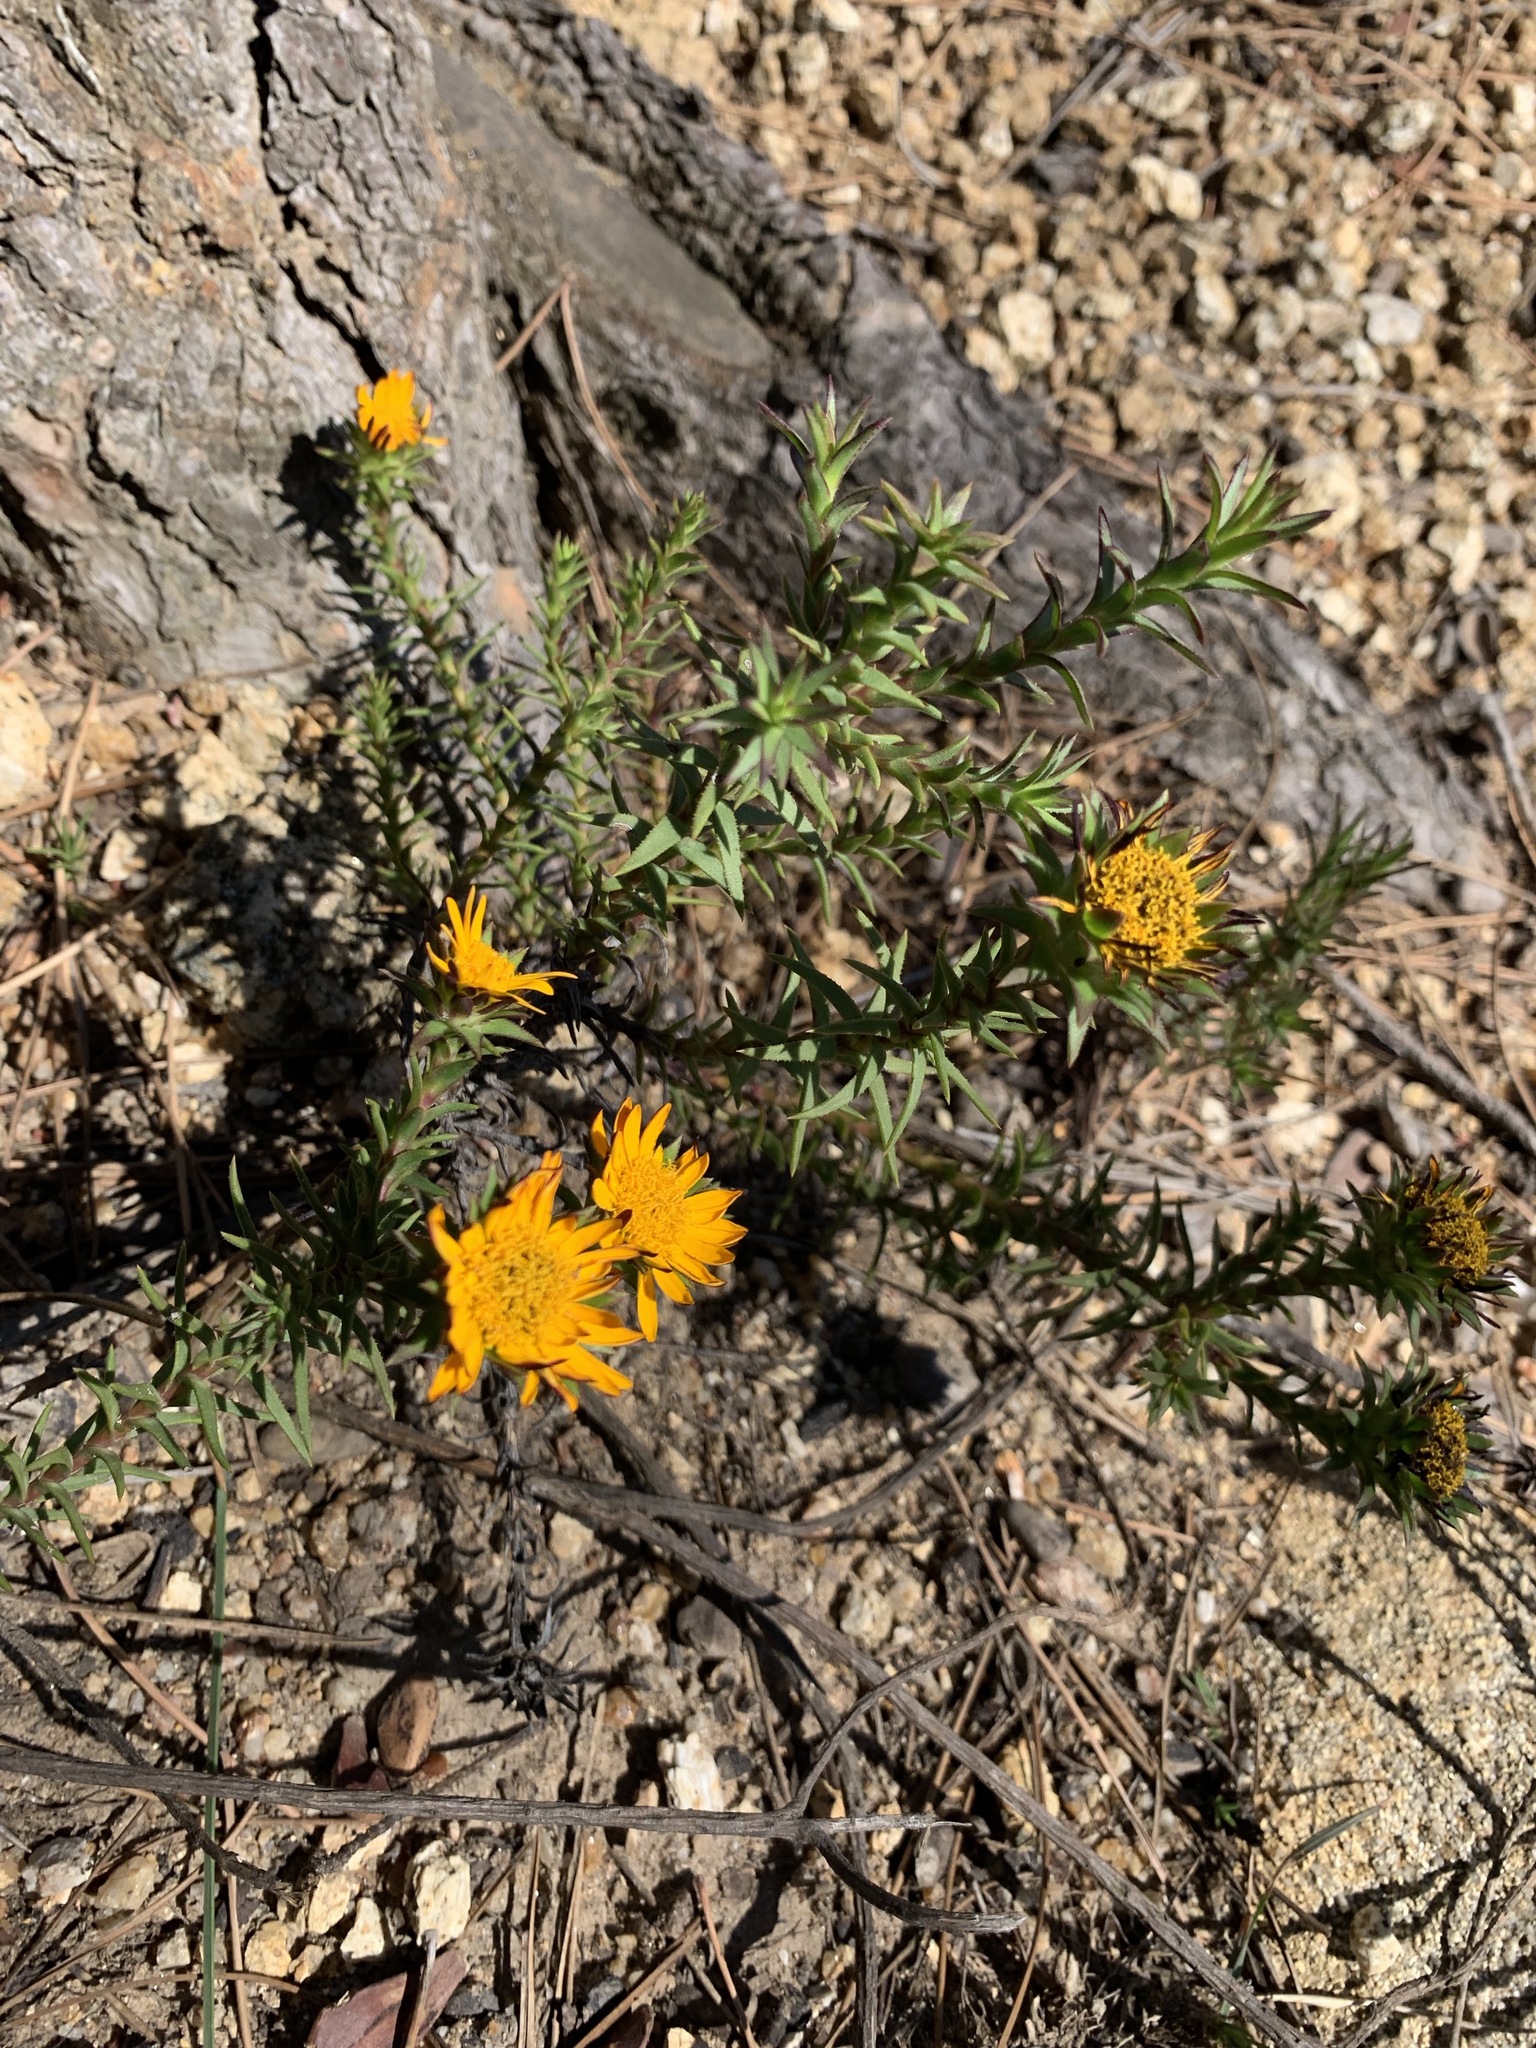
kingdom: Plantae
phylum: Tracheophyta
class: Magnoliopsida
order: Asterales
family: Asteraceae
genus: Oedera
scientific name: Oedera capensis
